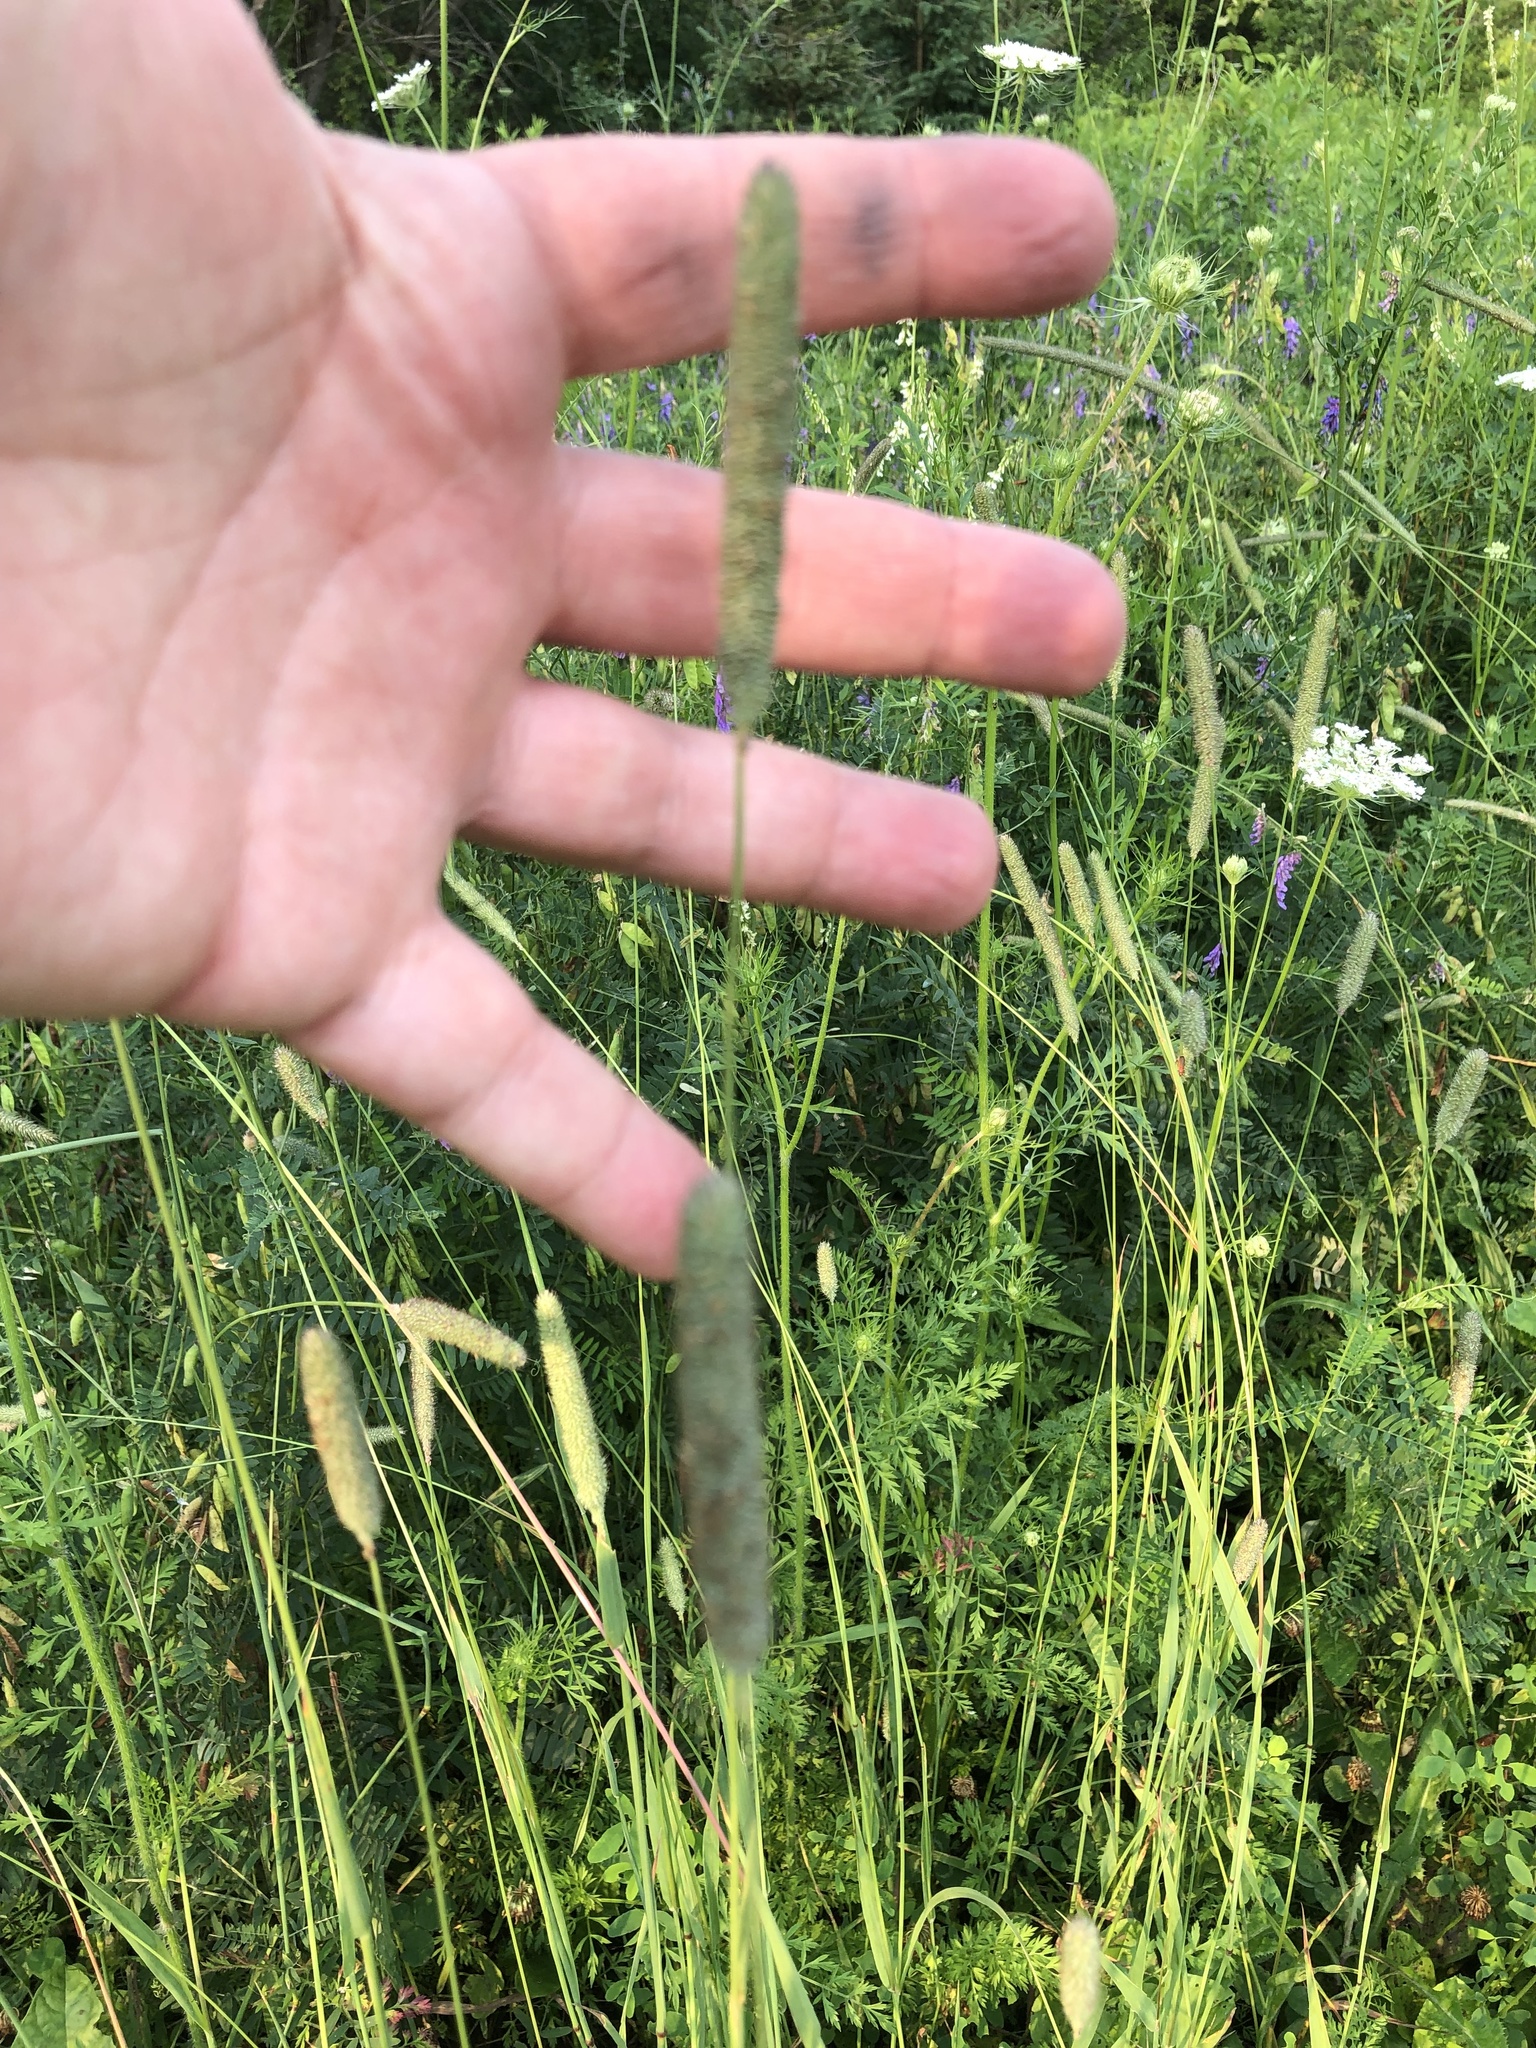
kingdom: Plantae
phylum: Tracheophyta
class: Liliopsida
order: Poales
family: Poaceae
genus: Phleum
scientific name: Phleum pratense
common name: Timothy grass
